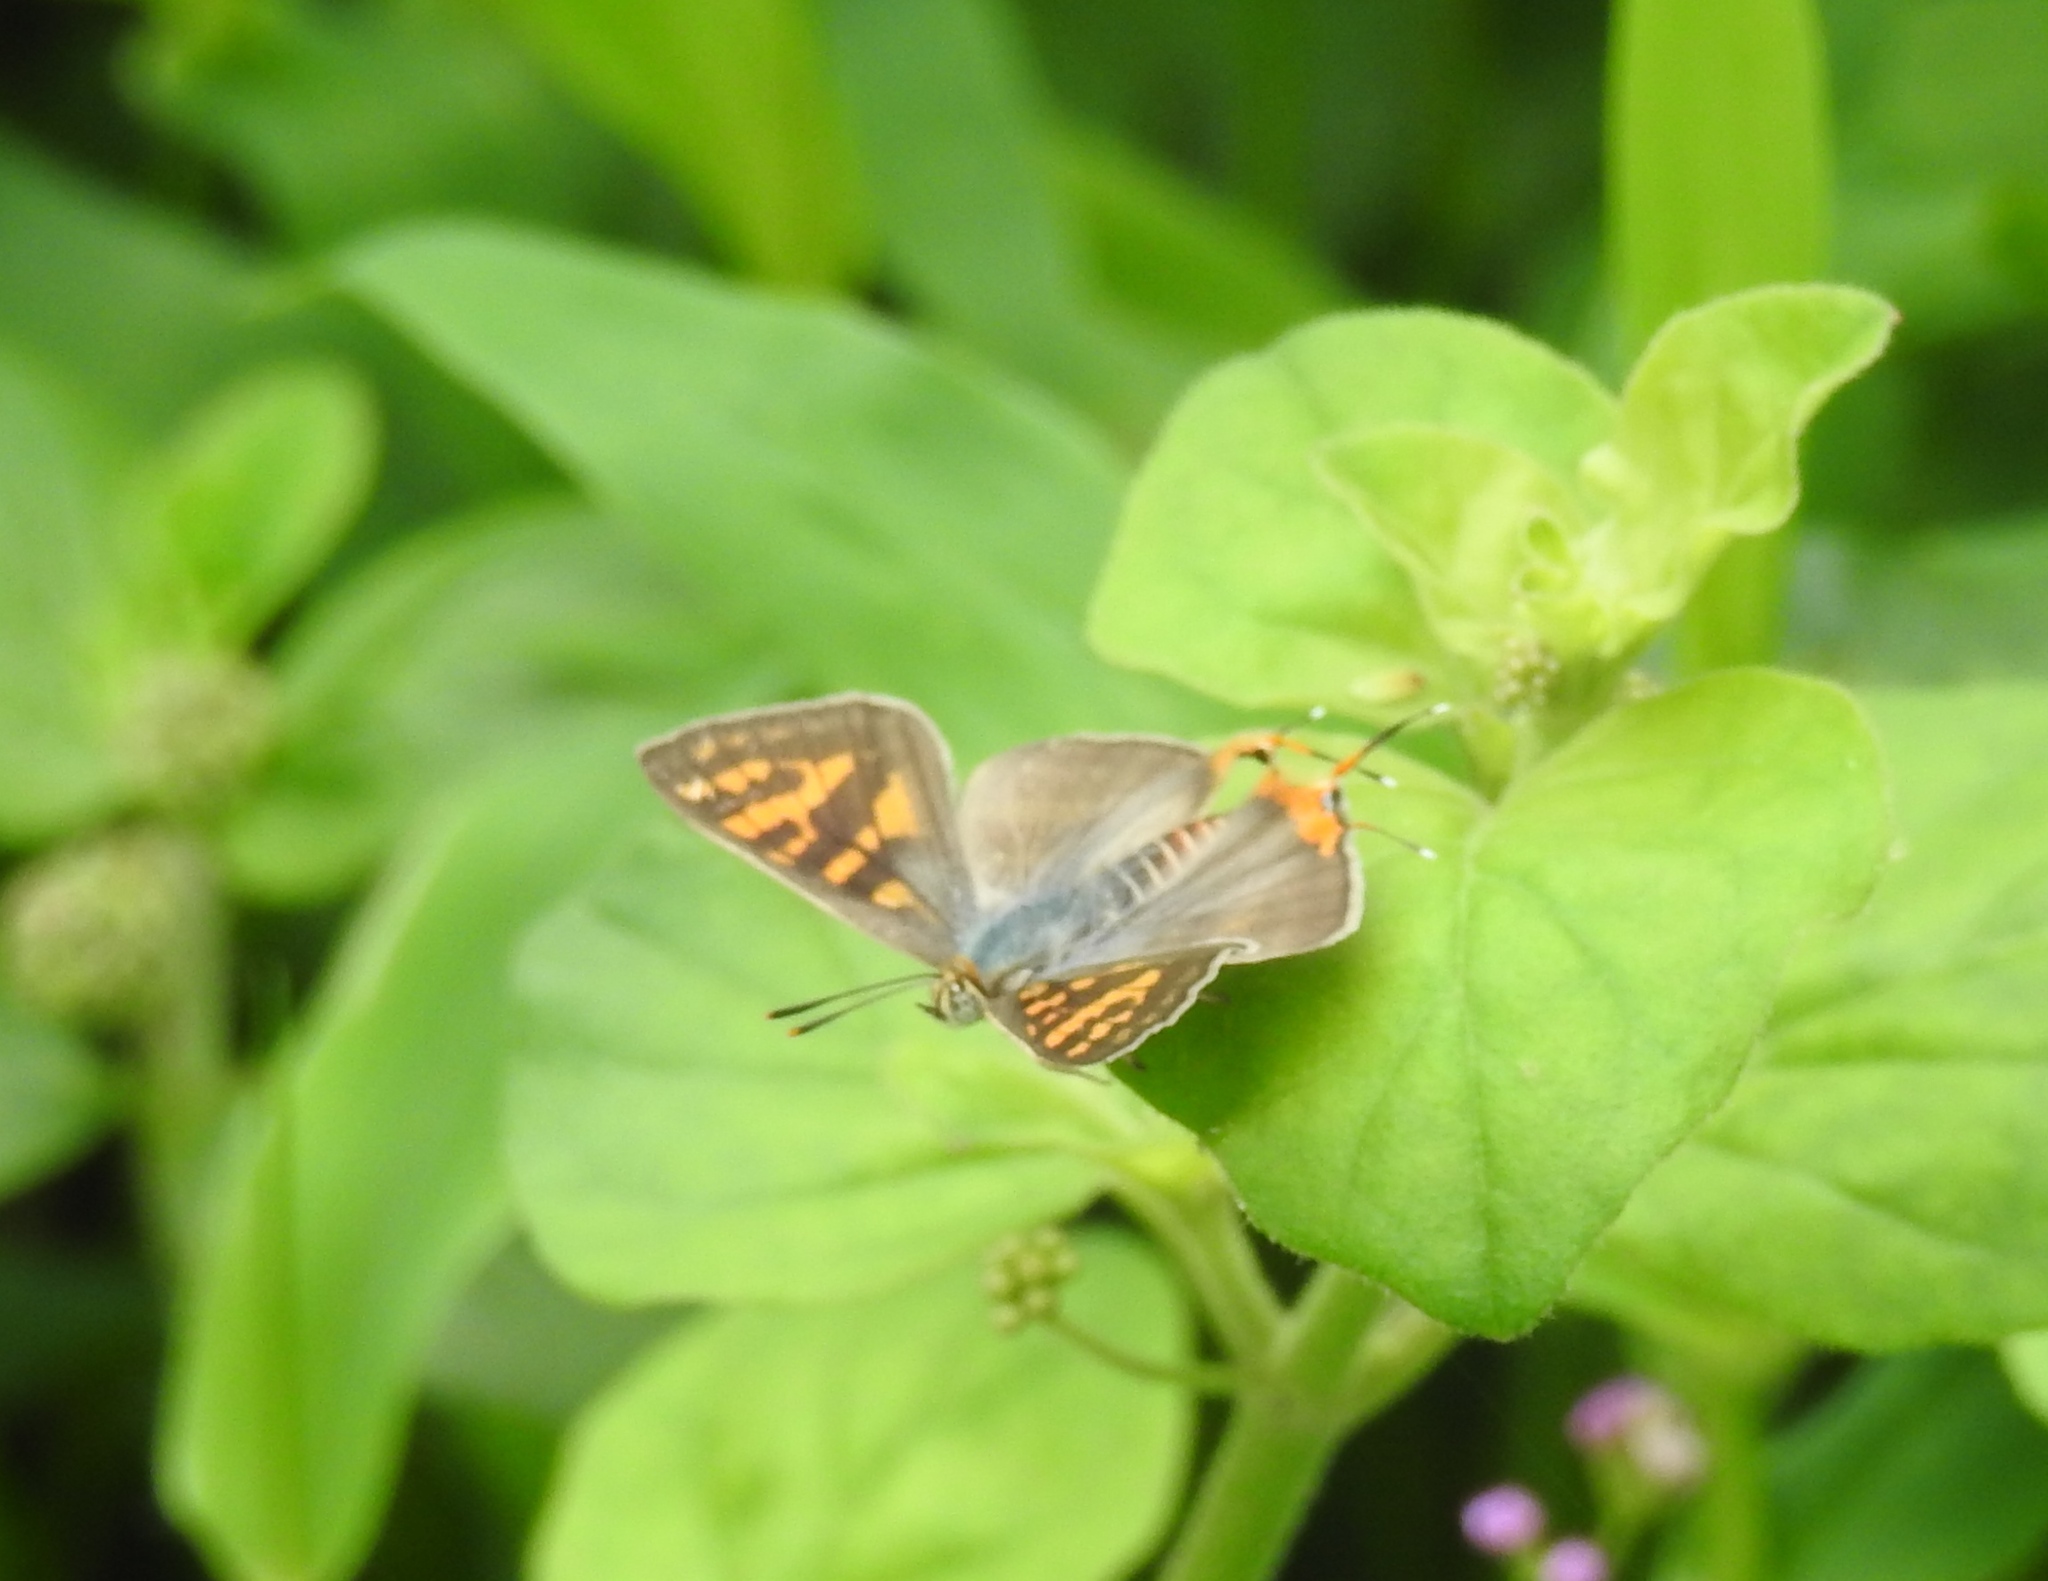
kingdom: Animalia
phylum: Arthropoda
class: Insecta
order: Lepidoptera
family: Lycaenidae
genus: Cigaritis
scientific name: Cigaritis vulcanus
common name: Common silverline
